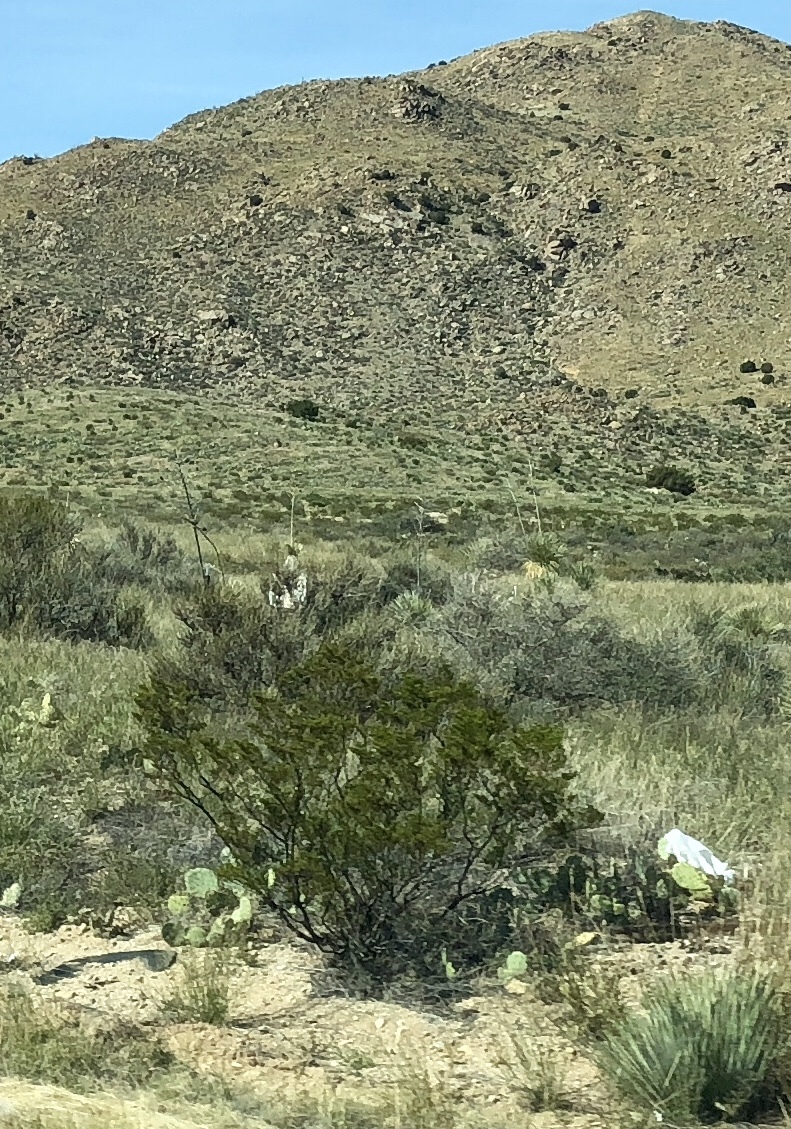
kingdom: Plantae
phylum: Tracheophyta
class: Magnoliopsida
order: Zygophyllales
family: Zygophyllaceae
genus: Larrea
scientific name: Larrea tridentata
